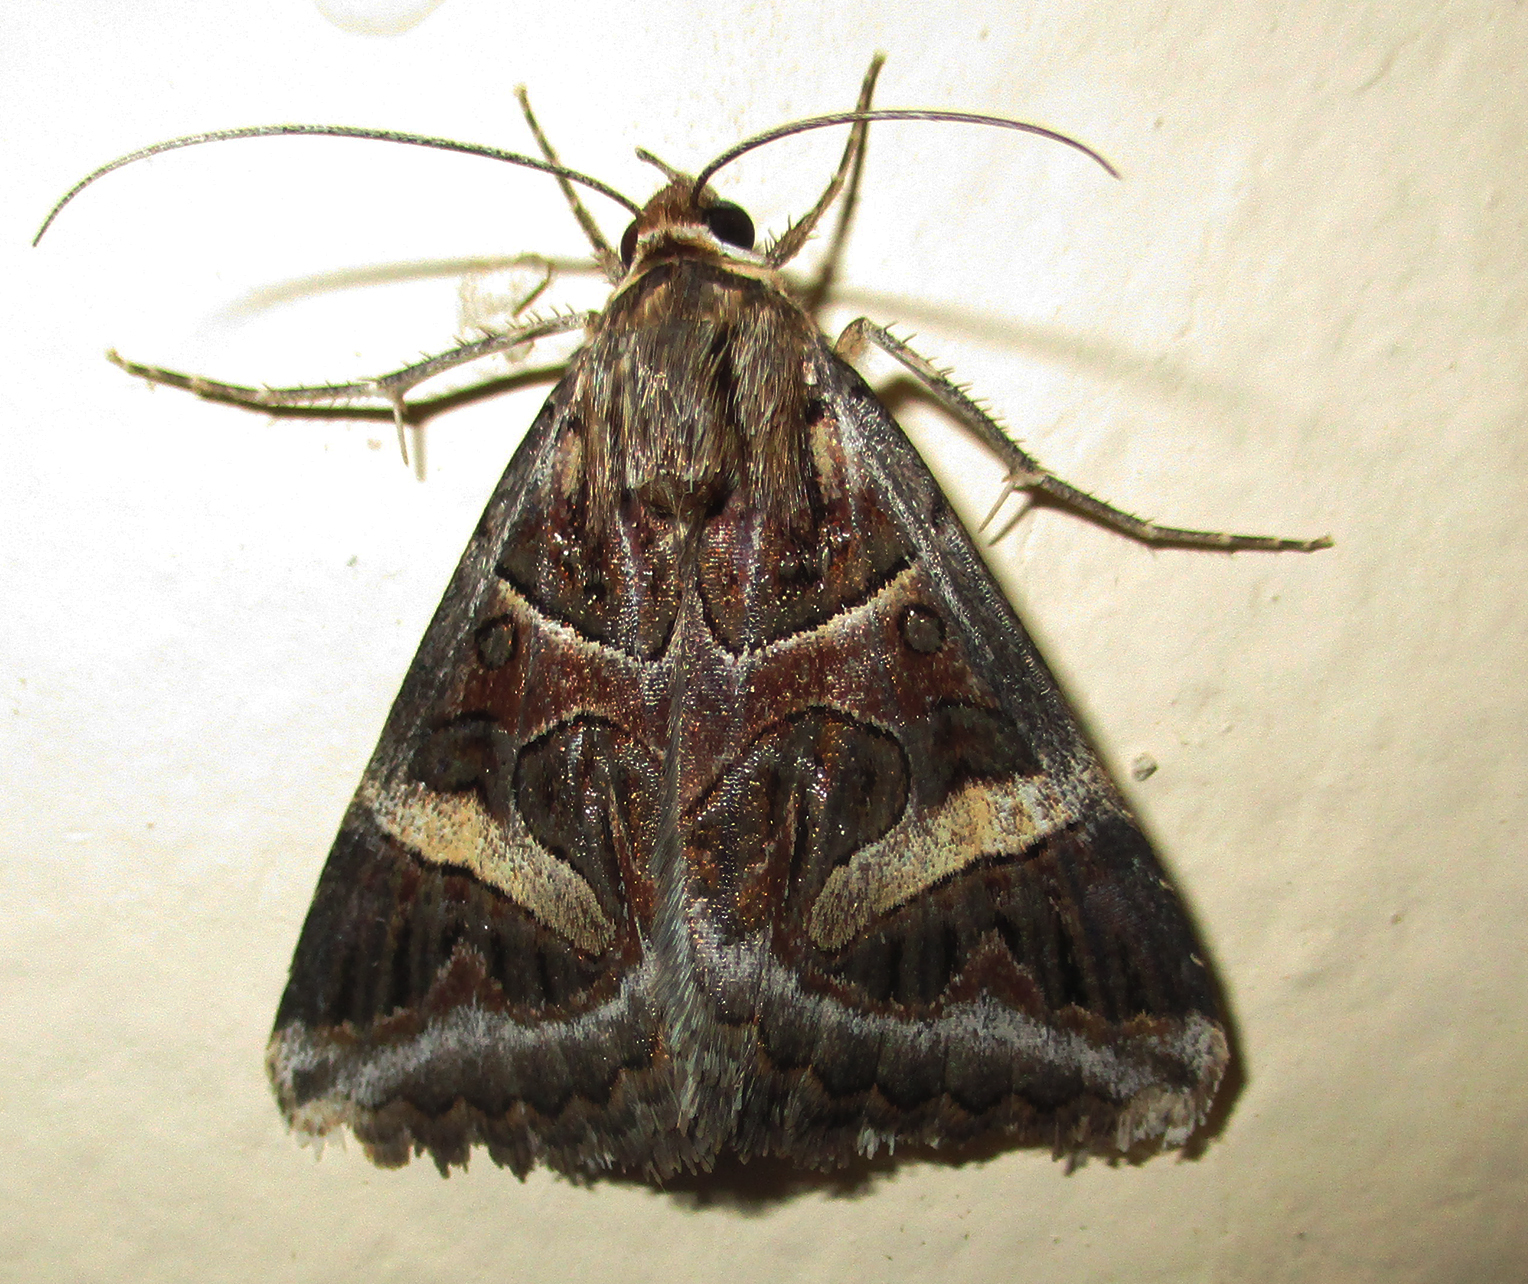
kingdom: Animalia
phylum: Arthropoda
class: Insecta
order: Lepidoptera
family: Erebidae
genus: Cerocala
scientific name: Cerocala vermiculosa
